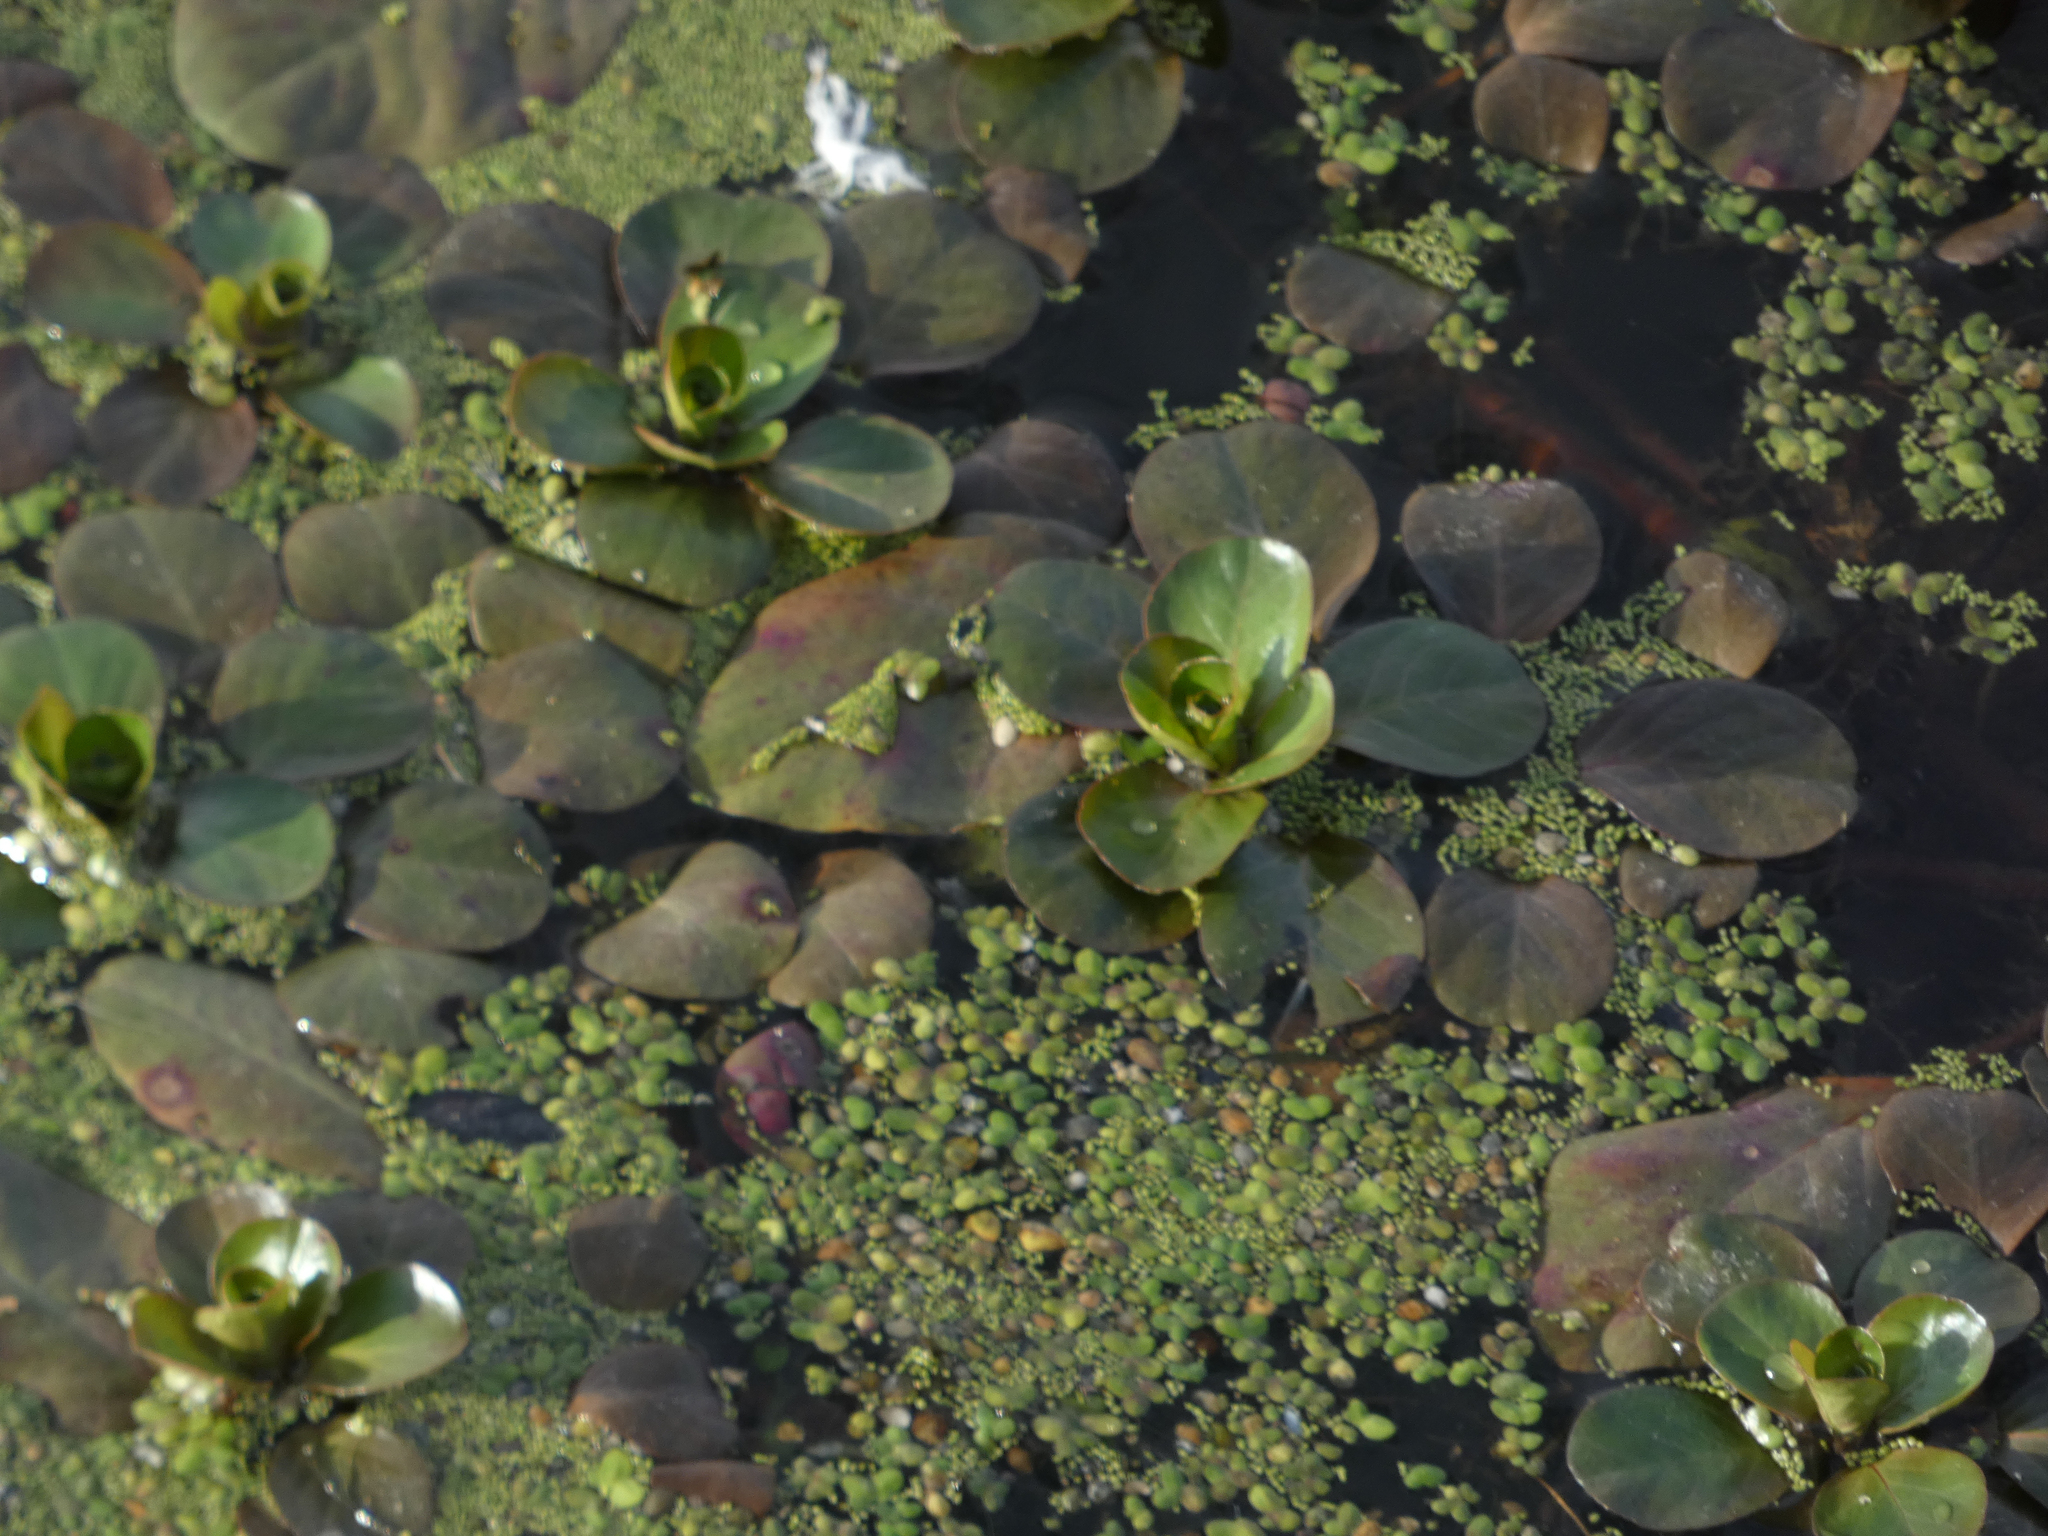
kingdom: Plantae
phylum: Tracheophyta
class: Magnoliopsida
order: Myrtales
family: Onagraceae
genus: Ludwigia
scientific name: Ludwigia peploides
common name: Floating primrose-willow
